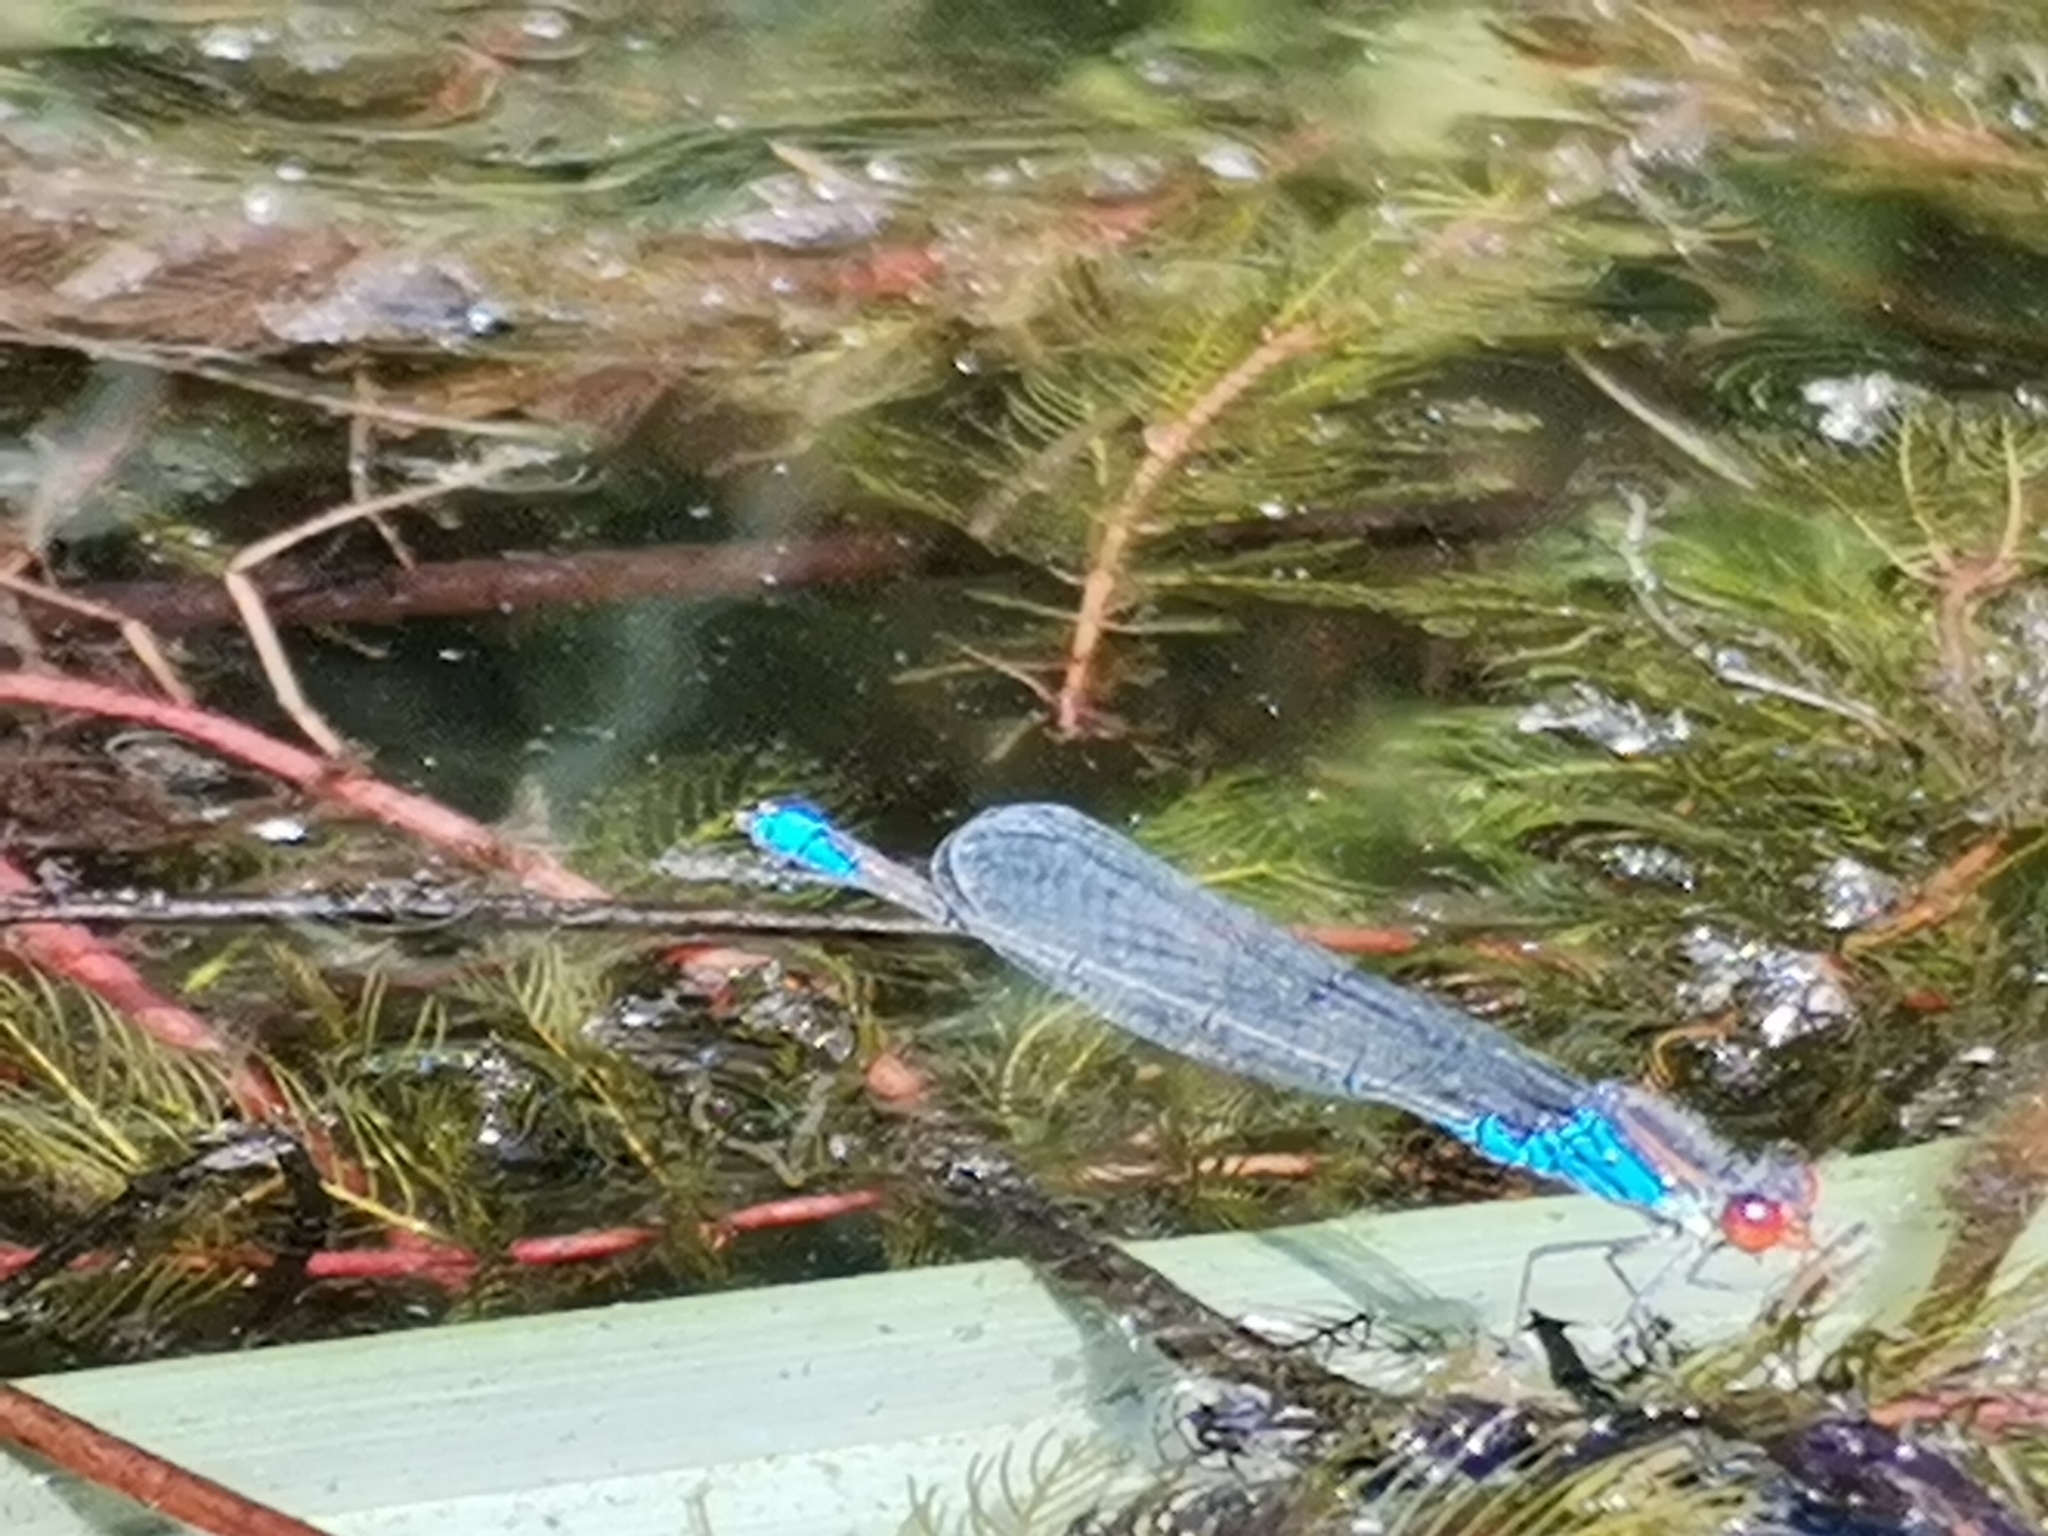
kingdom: Animalia
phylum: Arthropoda
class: Insecta
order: Odonata
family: Coenagrionidae
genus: Erythromma
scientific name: Erythromma viridulum
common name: Small red-eyed damselfly
